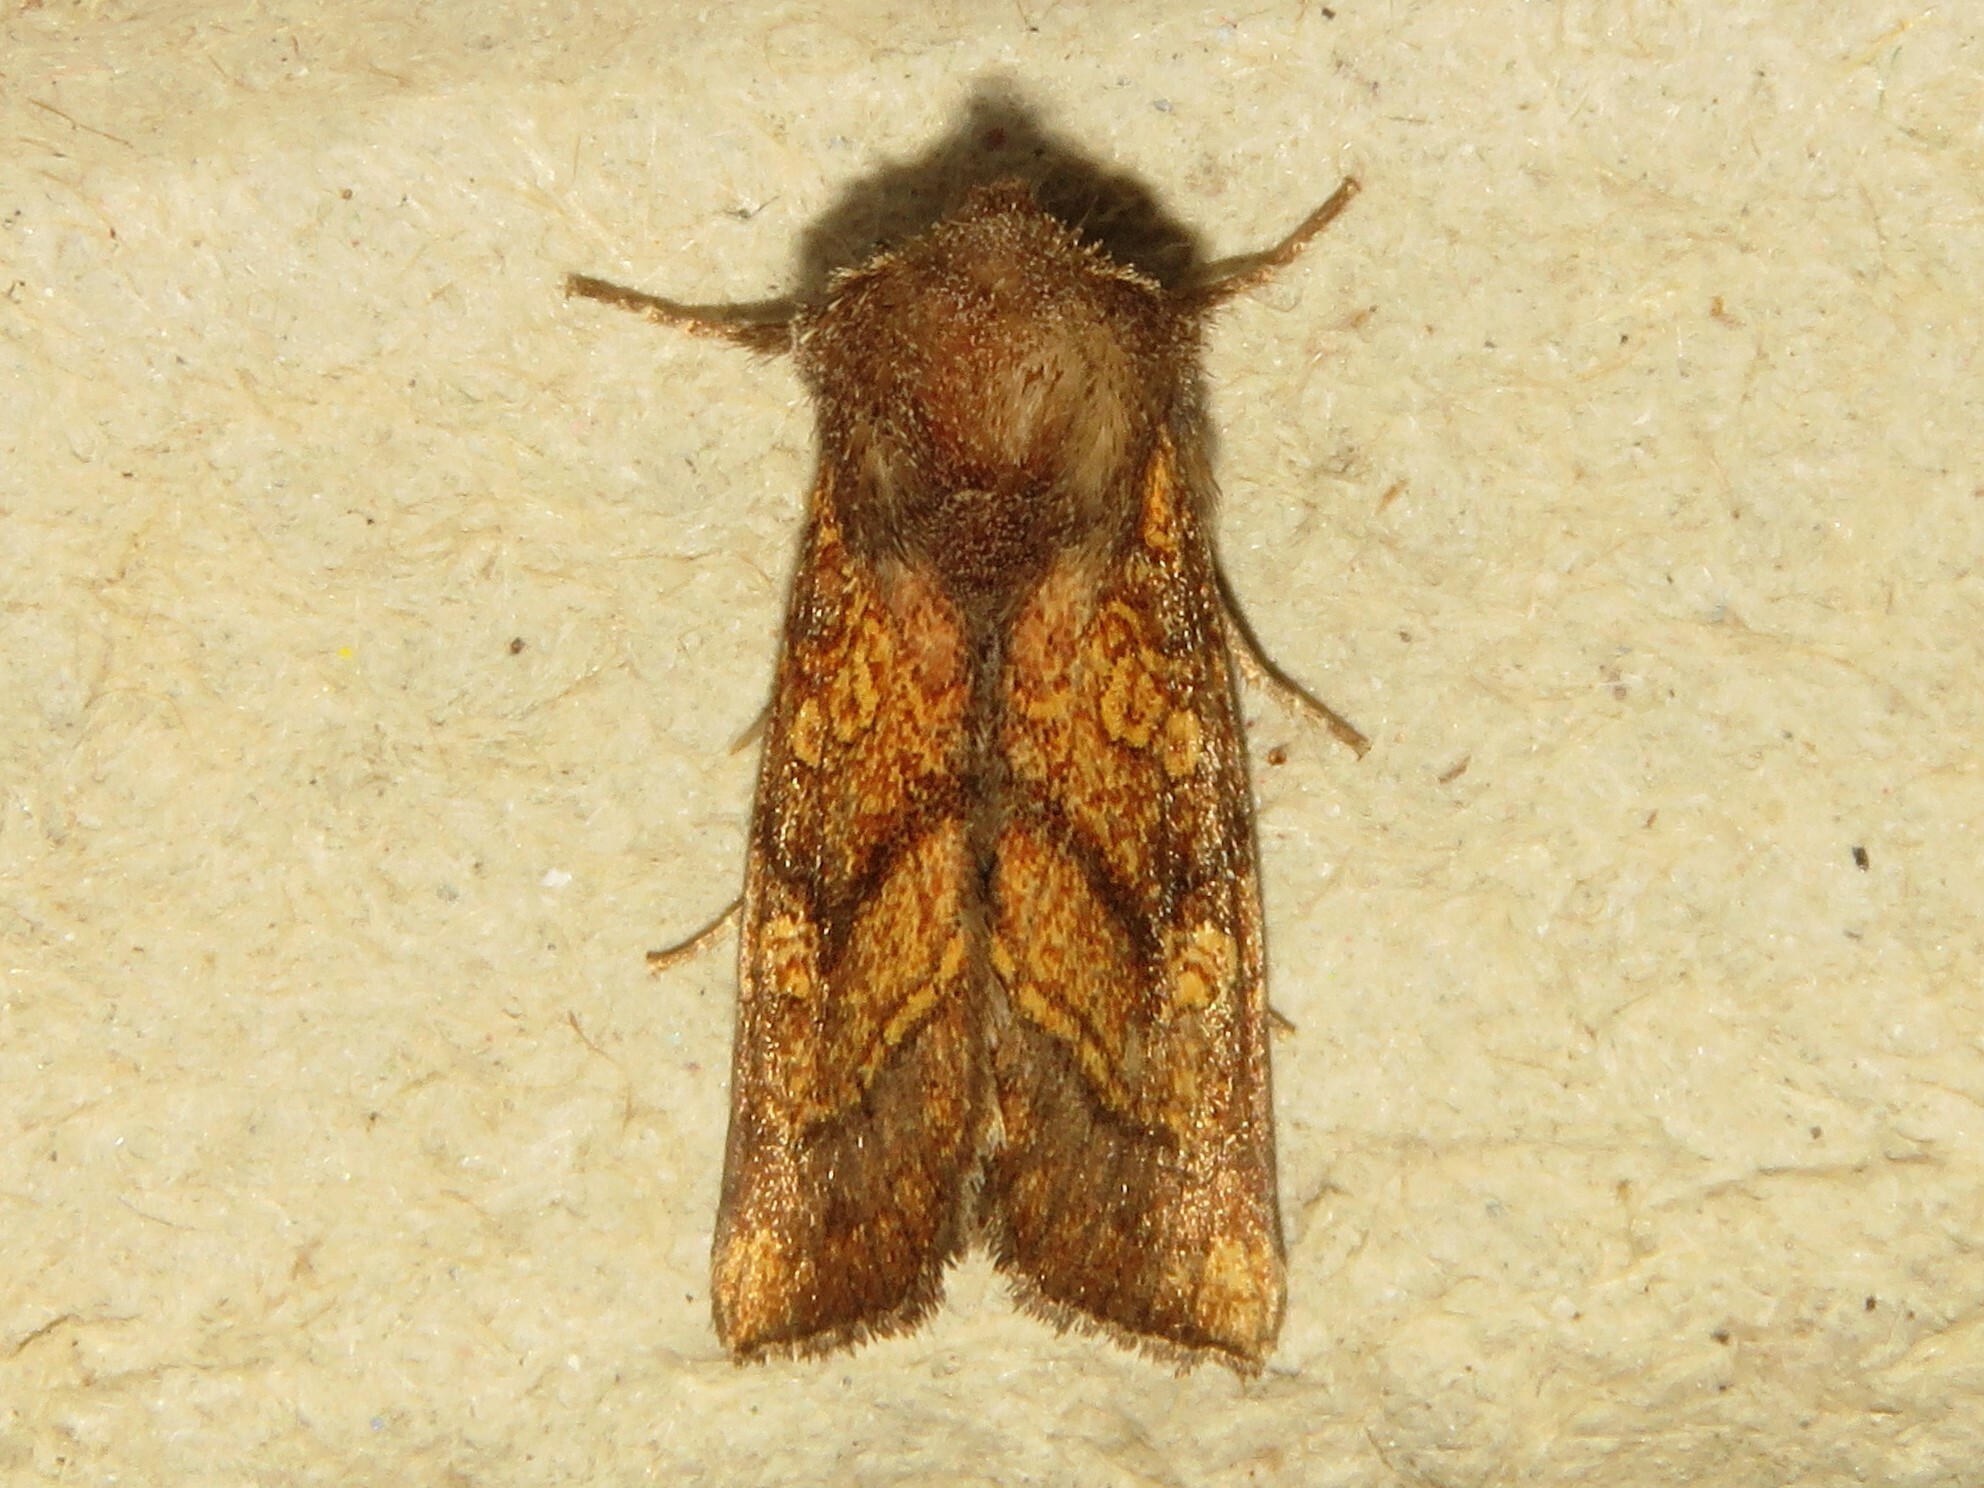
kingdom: Animalia
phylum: Arthropoda
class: Insecta
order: Lepidoptera
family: Noctuidae
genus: Papaipema
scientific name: Papaipema impecuniosa
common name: Aster borer moth
